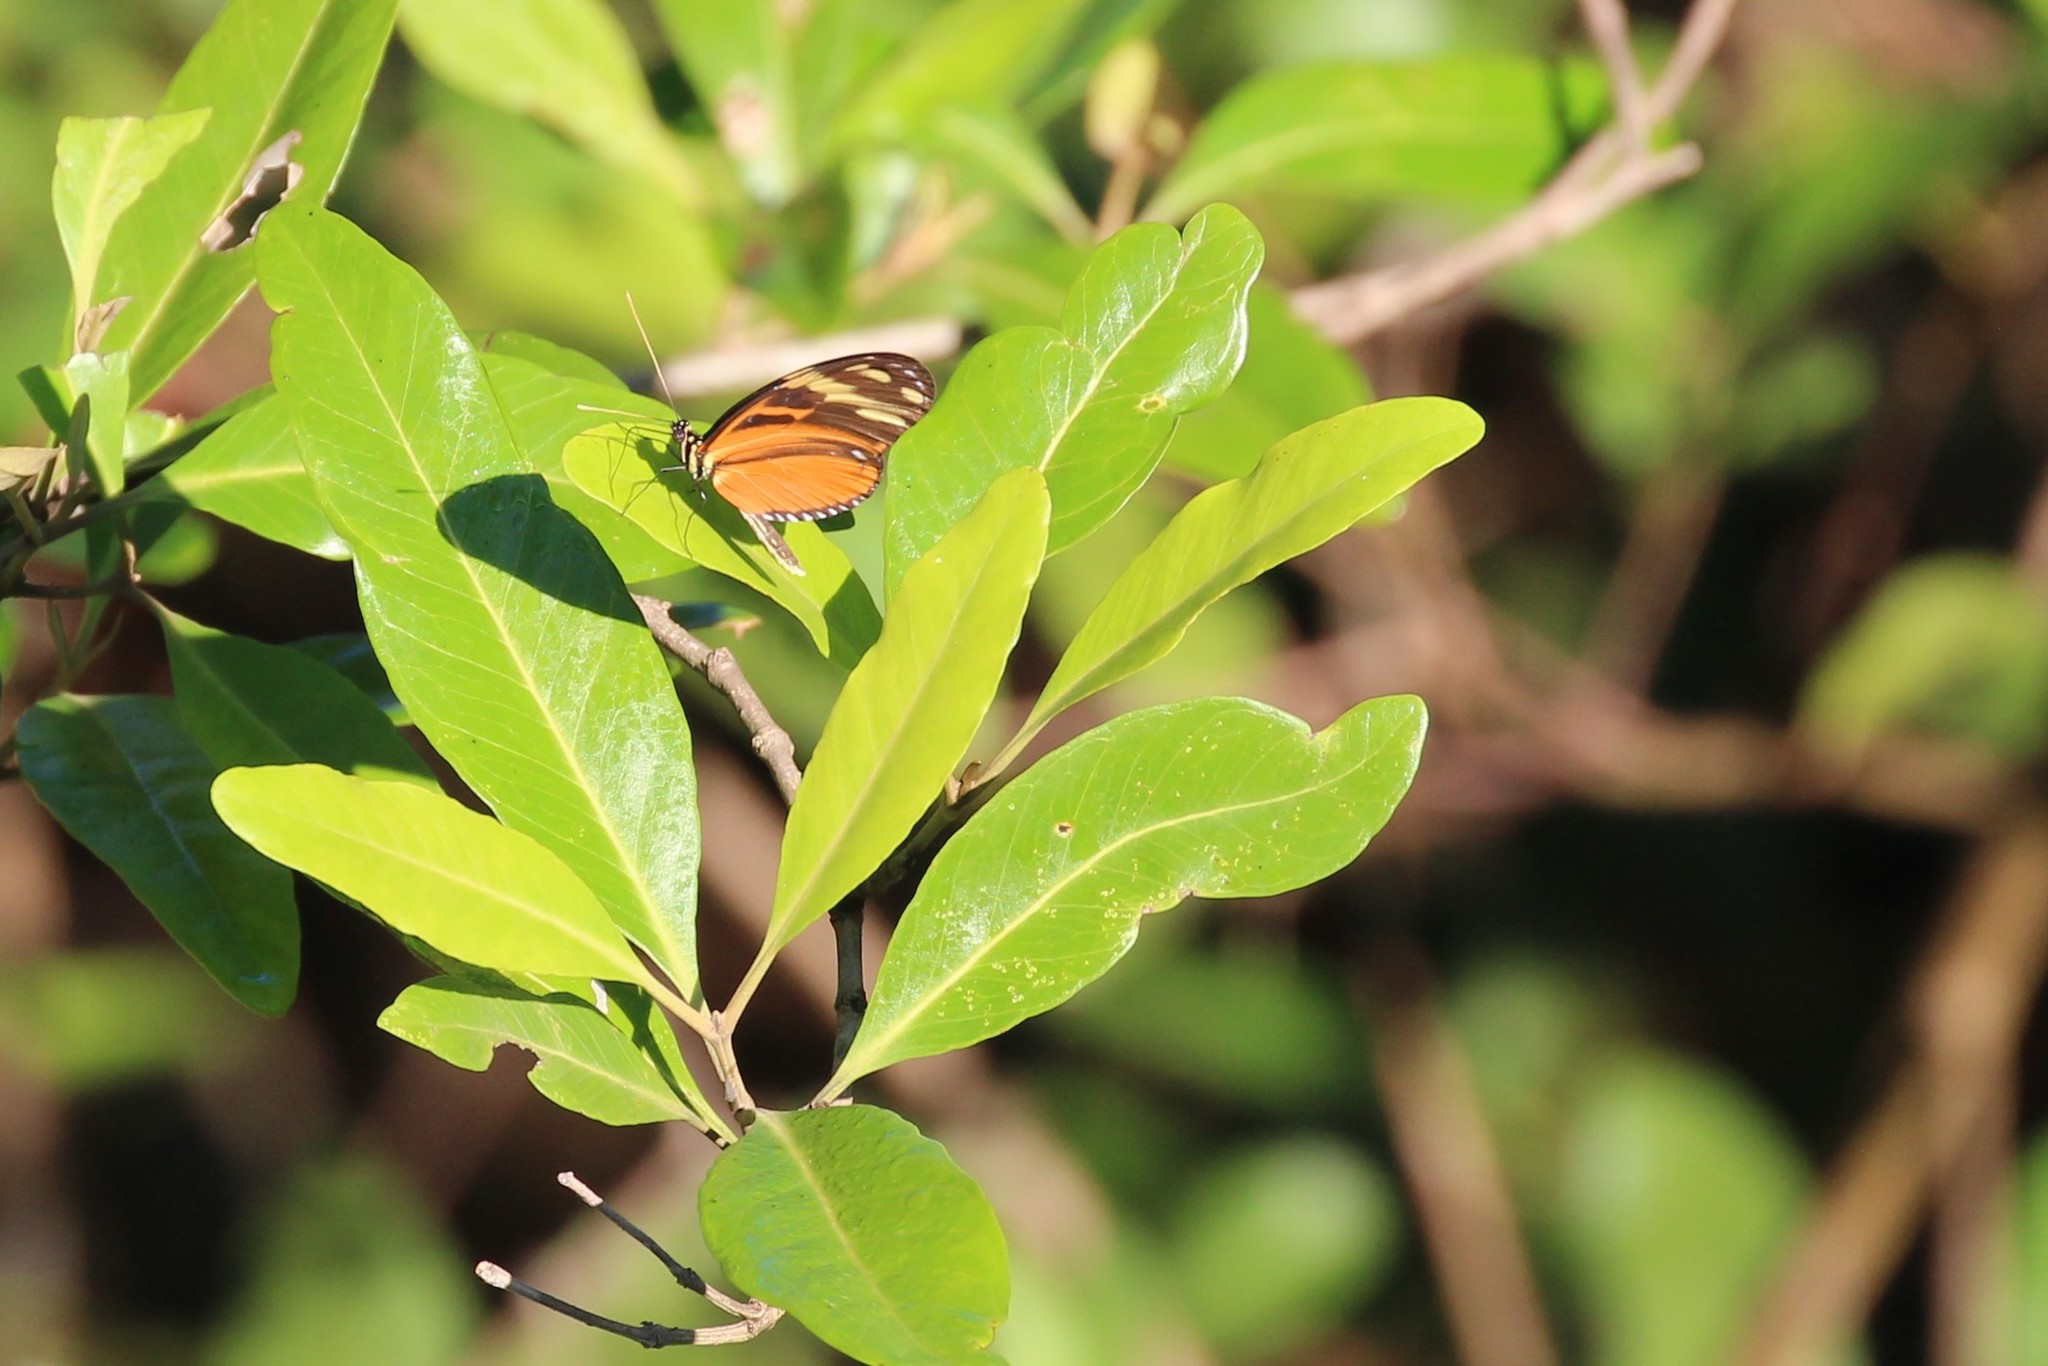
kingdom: Animalia
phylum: Arthropoda
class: Insecta
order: Lepidoptera
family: Nymphalidae
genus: Heliconius
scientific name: Heliconius ismenius
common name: Ismenius tiger
